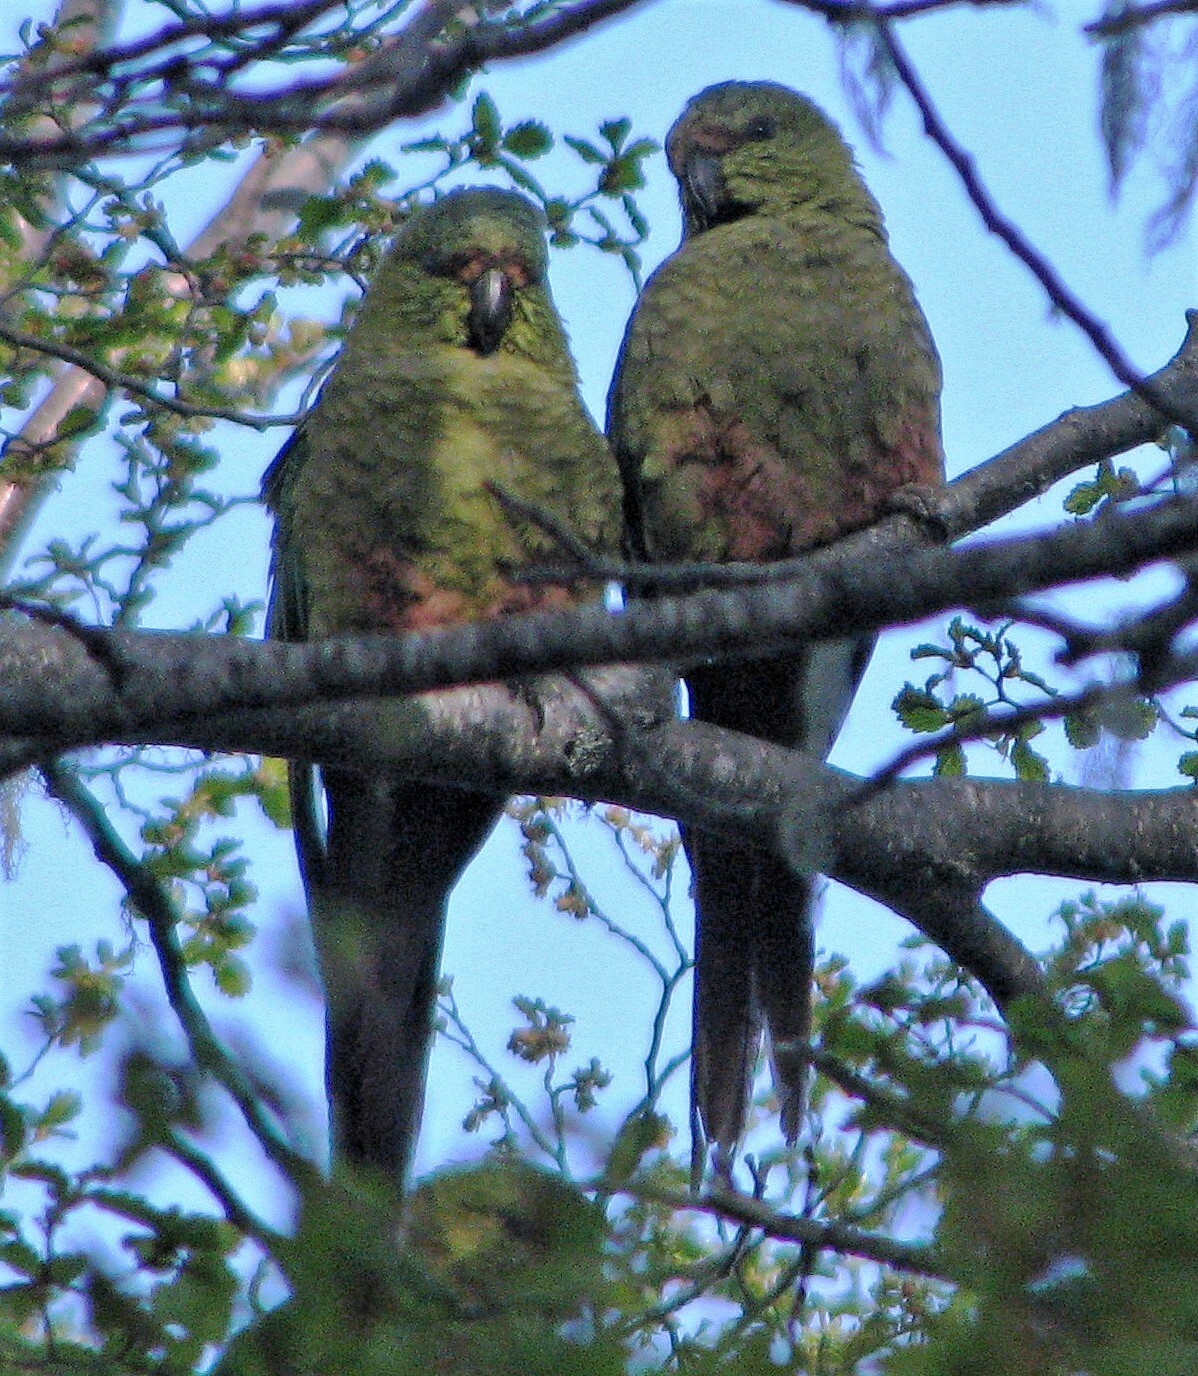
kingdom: Animalia
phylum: Chordata
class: Aves
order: Psittaciformes
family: Psittacidae
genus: Enicognathus
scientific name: Enicognathus ferrugineus
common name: Austral parakeet
